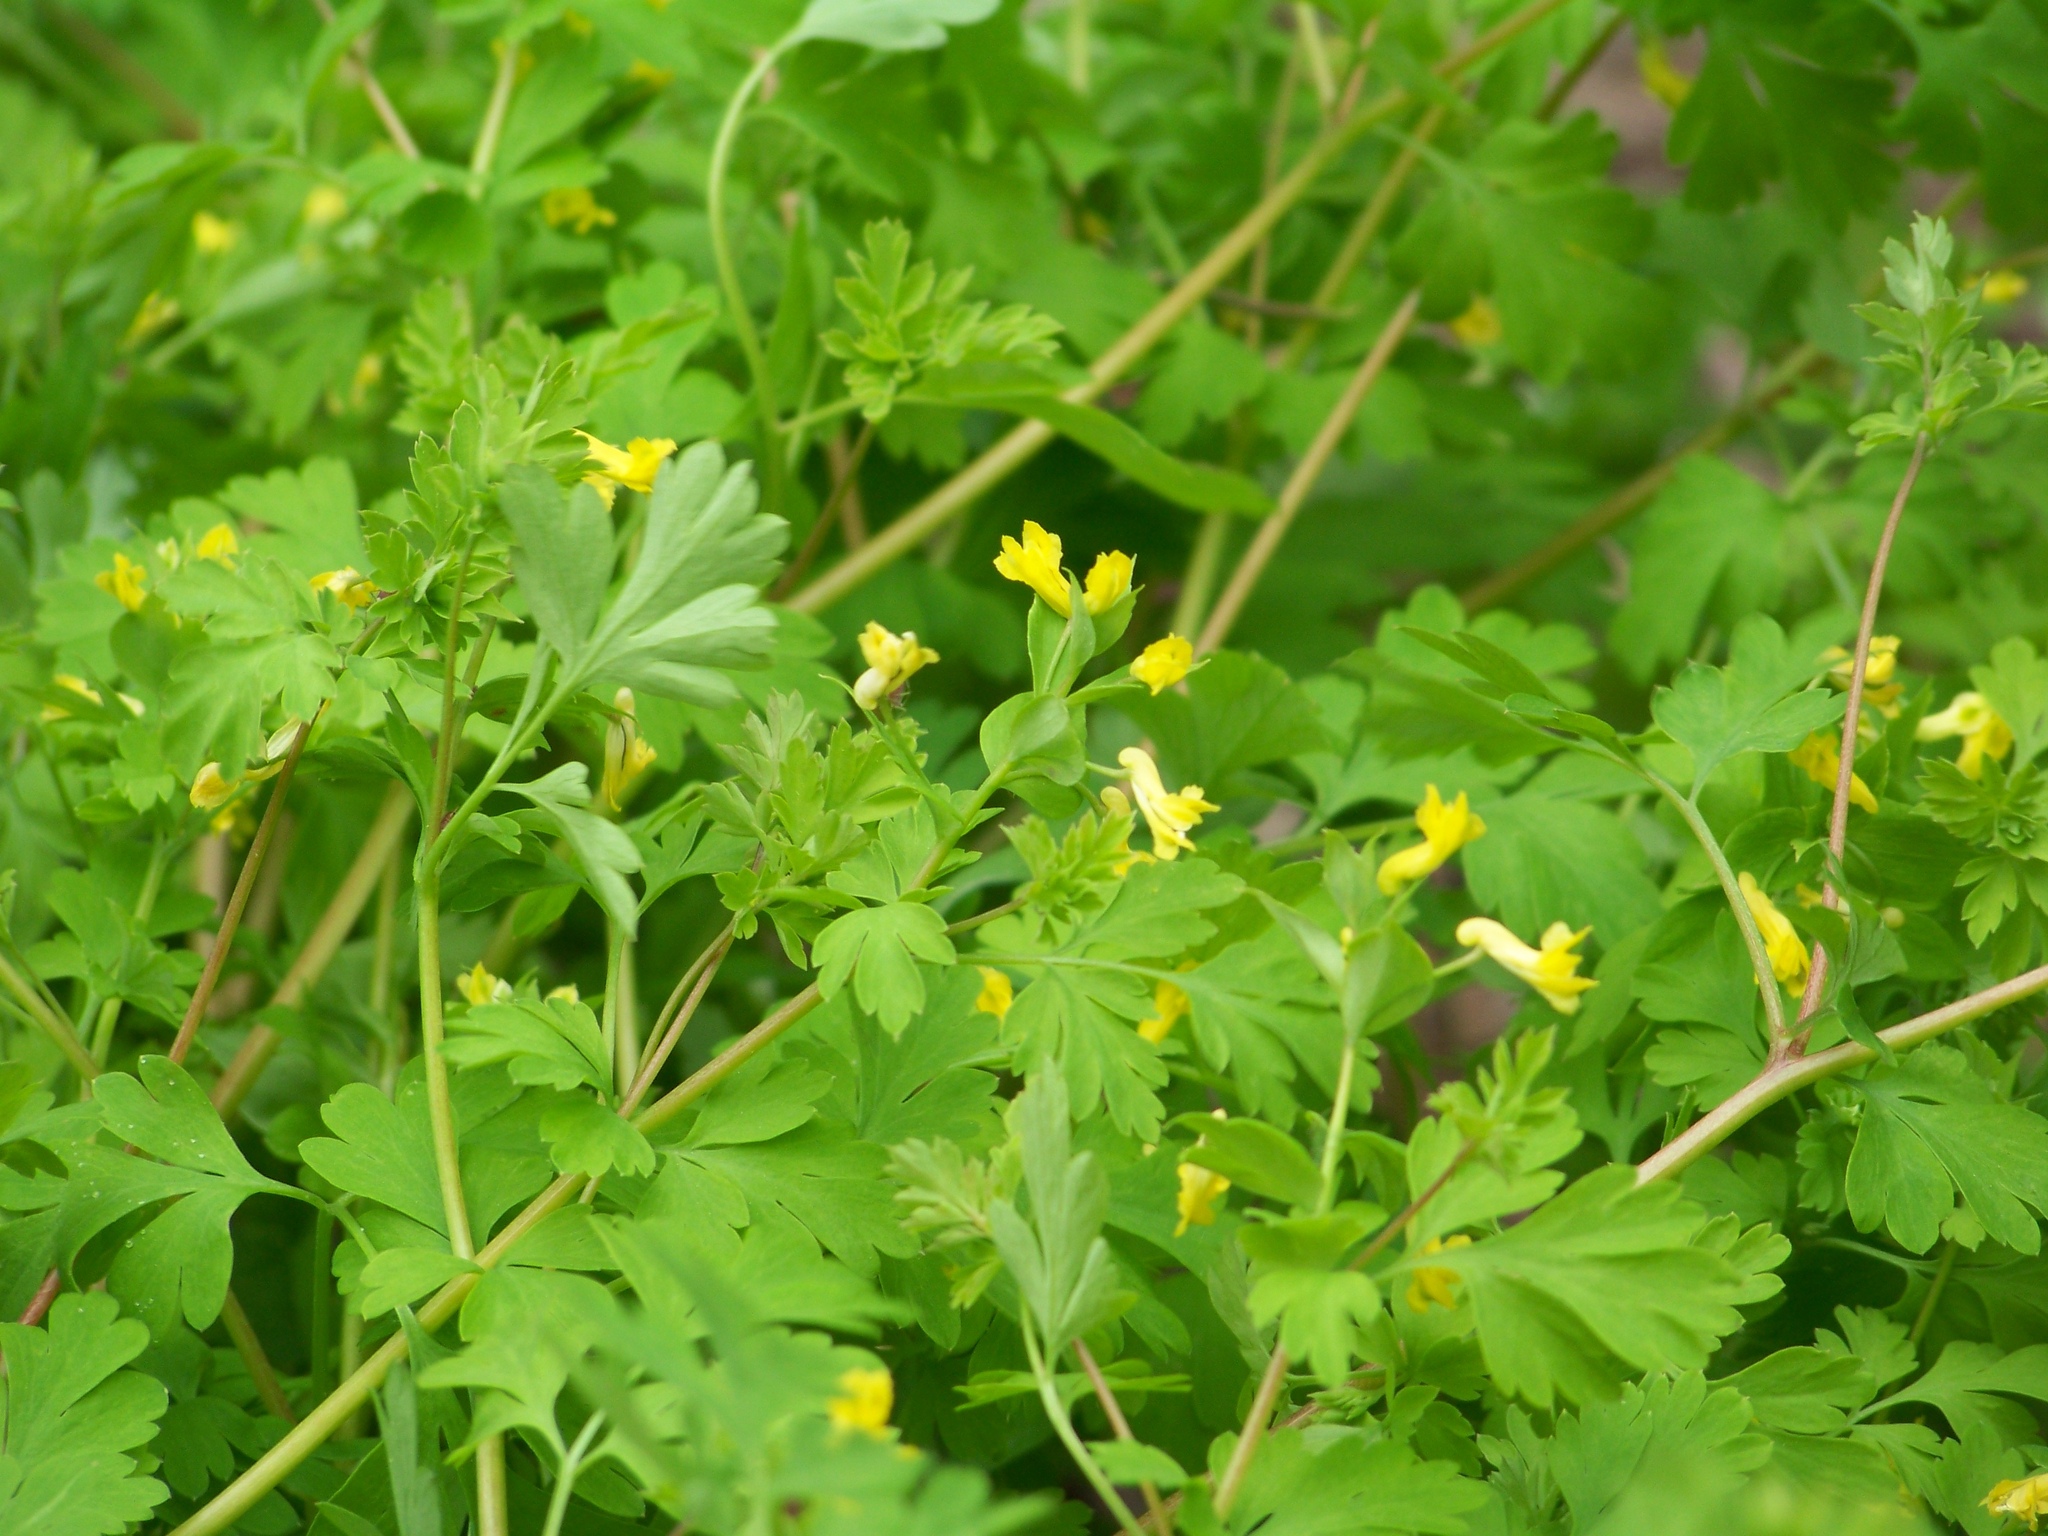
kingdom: Plantae
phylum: Tracheophyta
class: Magnoliopsida
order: Ranunculales
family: Papaveraceae
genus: Corydalis
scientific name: Corydalis flavula
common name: Yellow corydalis
